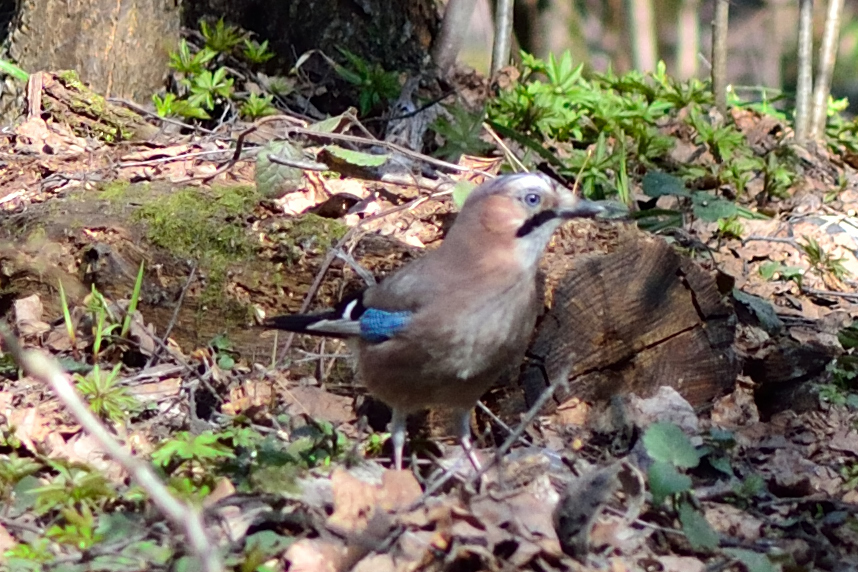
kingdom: Animalia
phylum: Chordata
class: Aves
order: Passeriformes
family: Corvidae
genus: Garrulus
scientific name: Garrulus glandarius
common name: Eurasian jay
